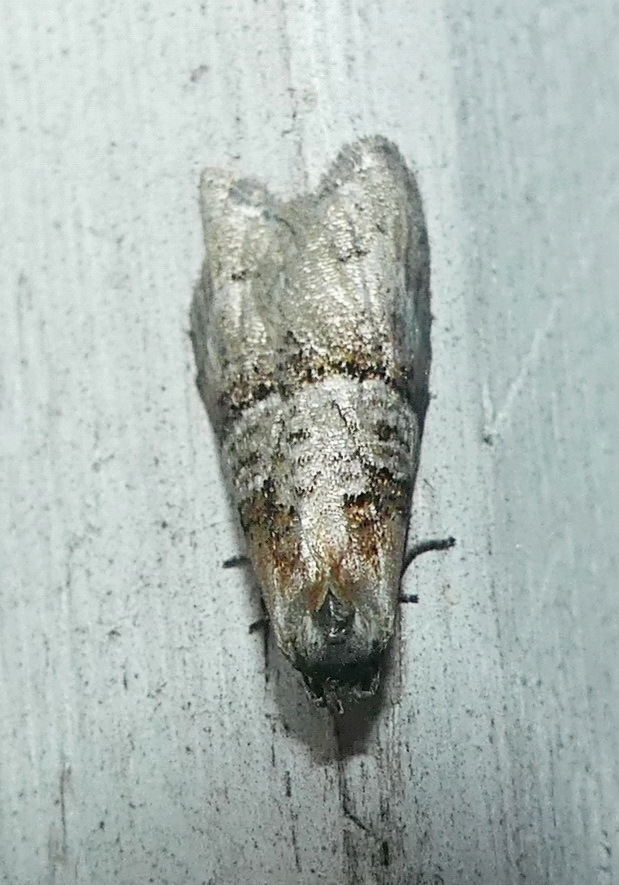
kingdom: Animalia
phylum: Arthropoda
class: Insecta
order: Lepidoptera
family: Tortricidae
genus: Decodes
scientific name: Decodes macdunnoughi
